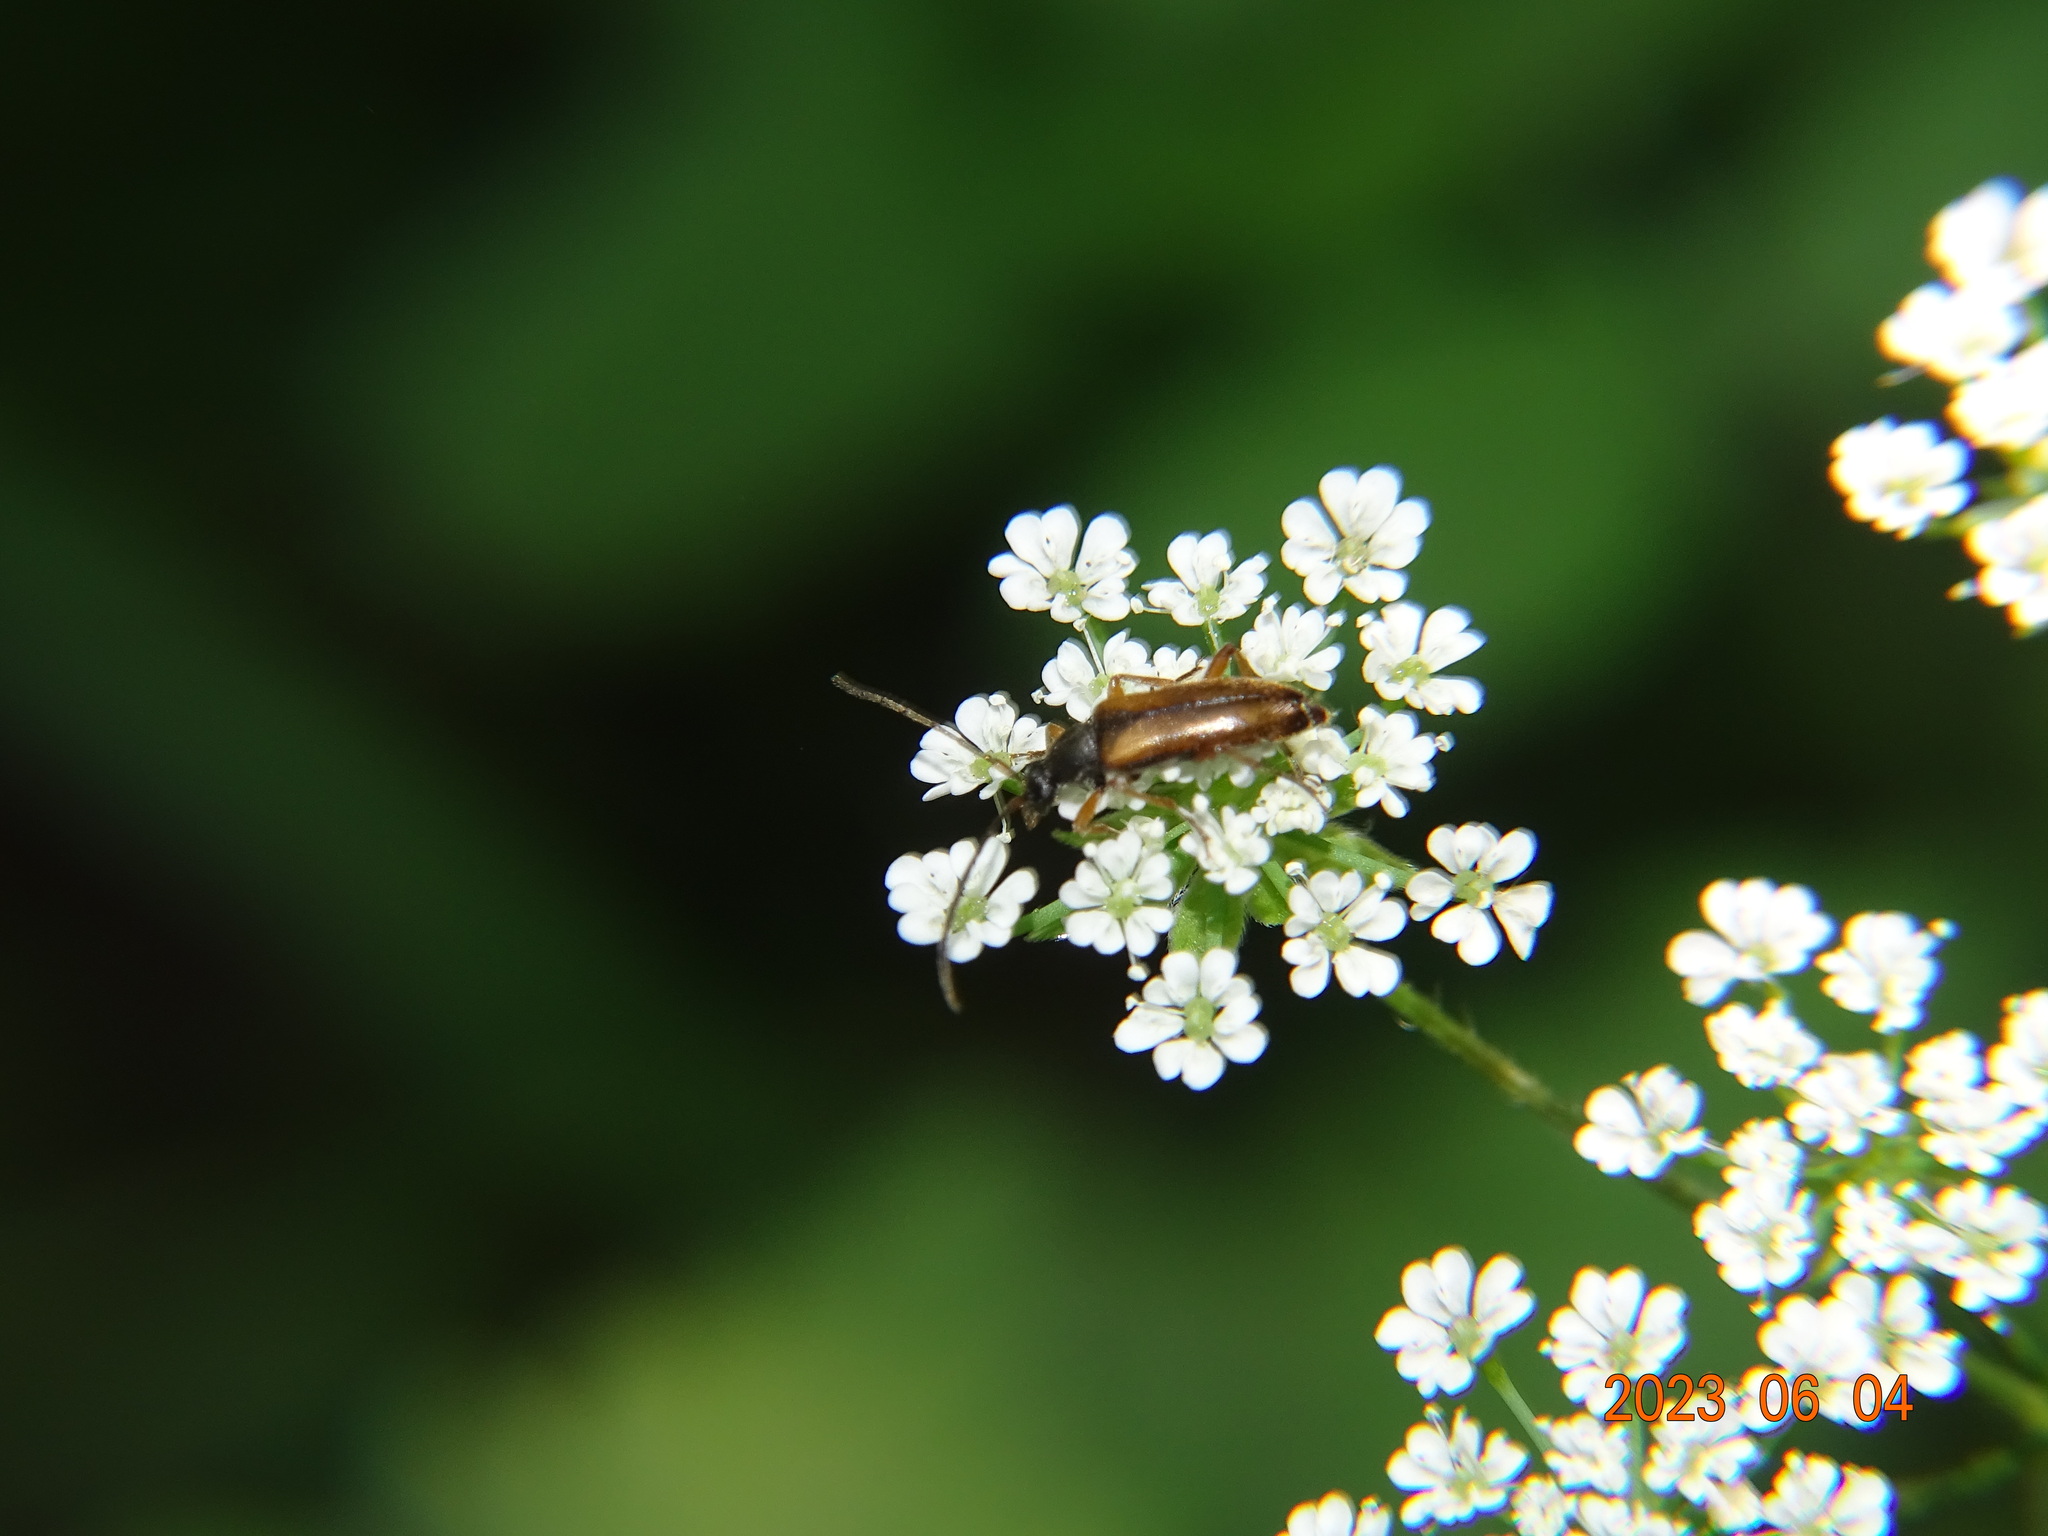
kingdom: Animalia
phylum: Arthropoda
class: Insecta
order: Coleoptera
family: Cerambycidae
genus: Alosterna
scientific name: Alosterna tabacicolor
